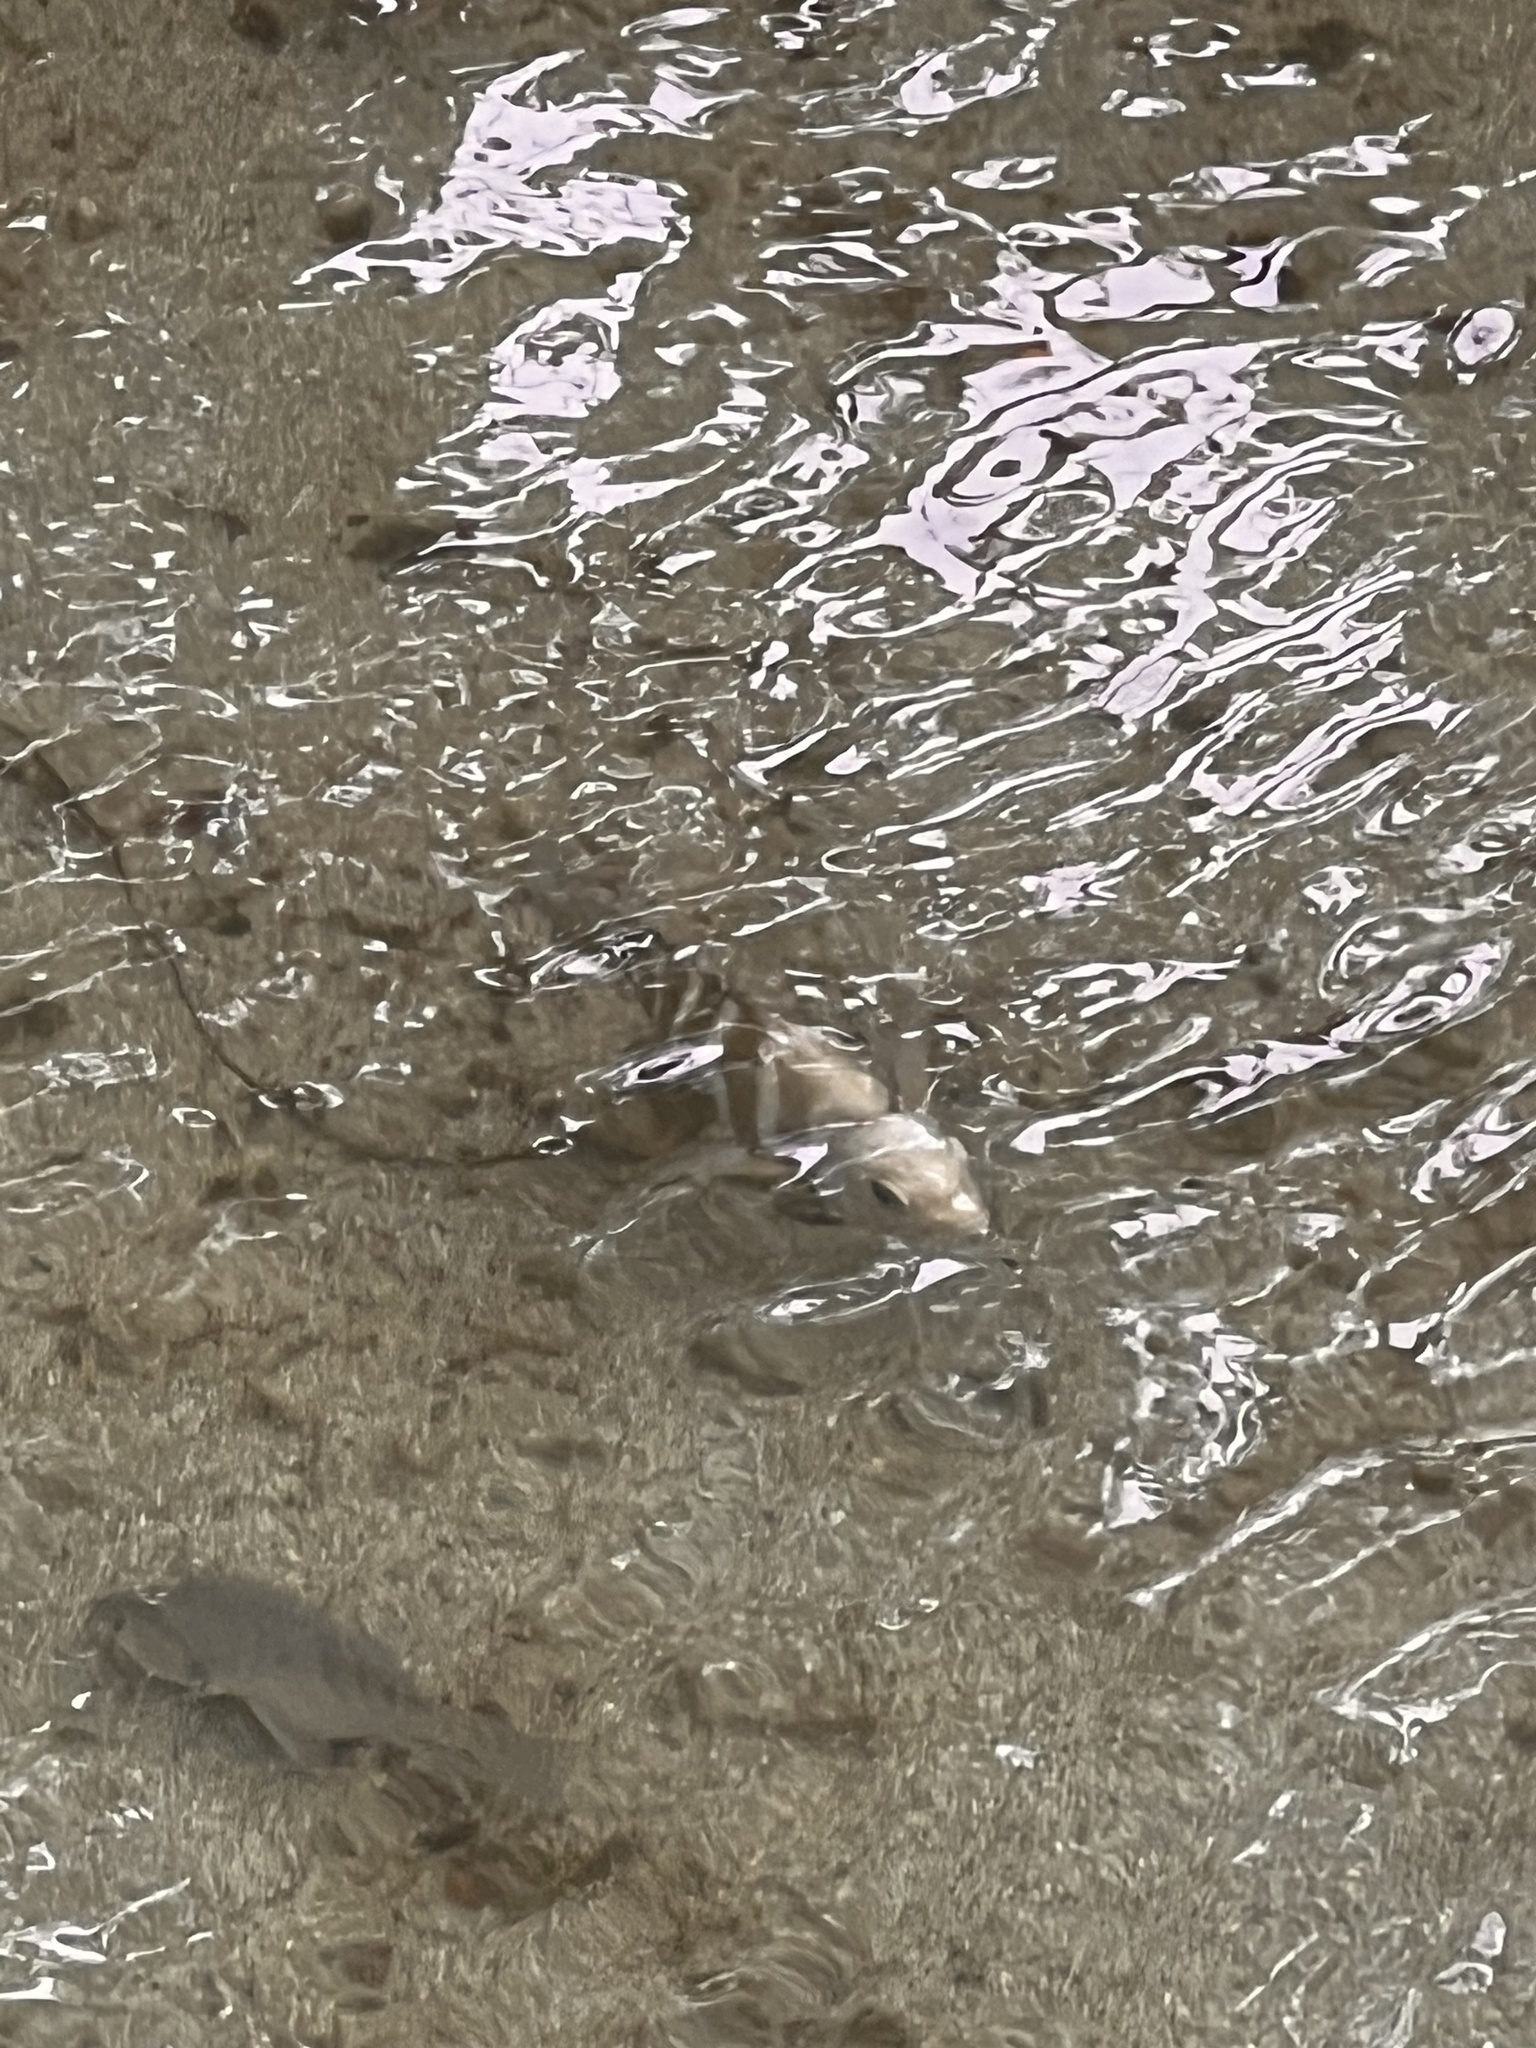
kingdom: Animalia
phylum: Chordata
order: Perciformes
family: Pomacentridae
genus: Abudefduf
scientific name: Abudefduf sordidus
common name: Blackspot sergeant
